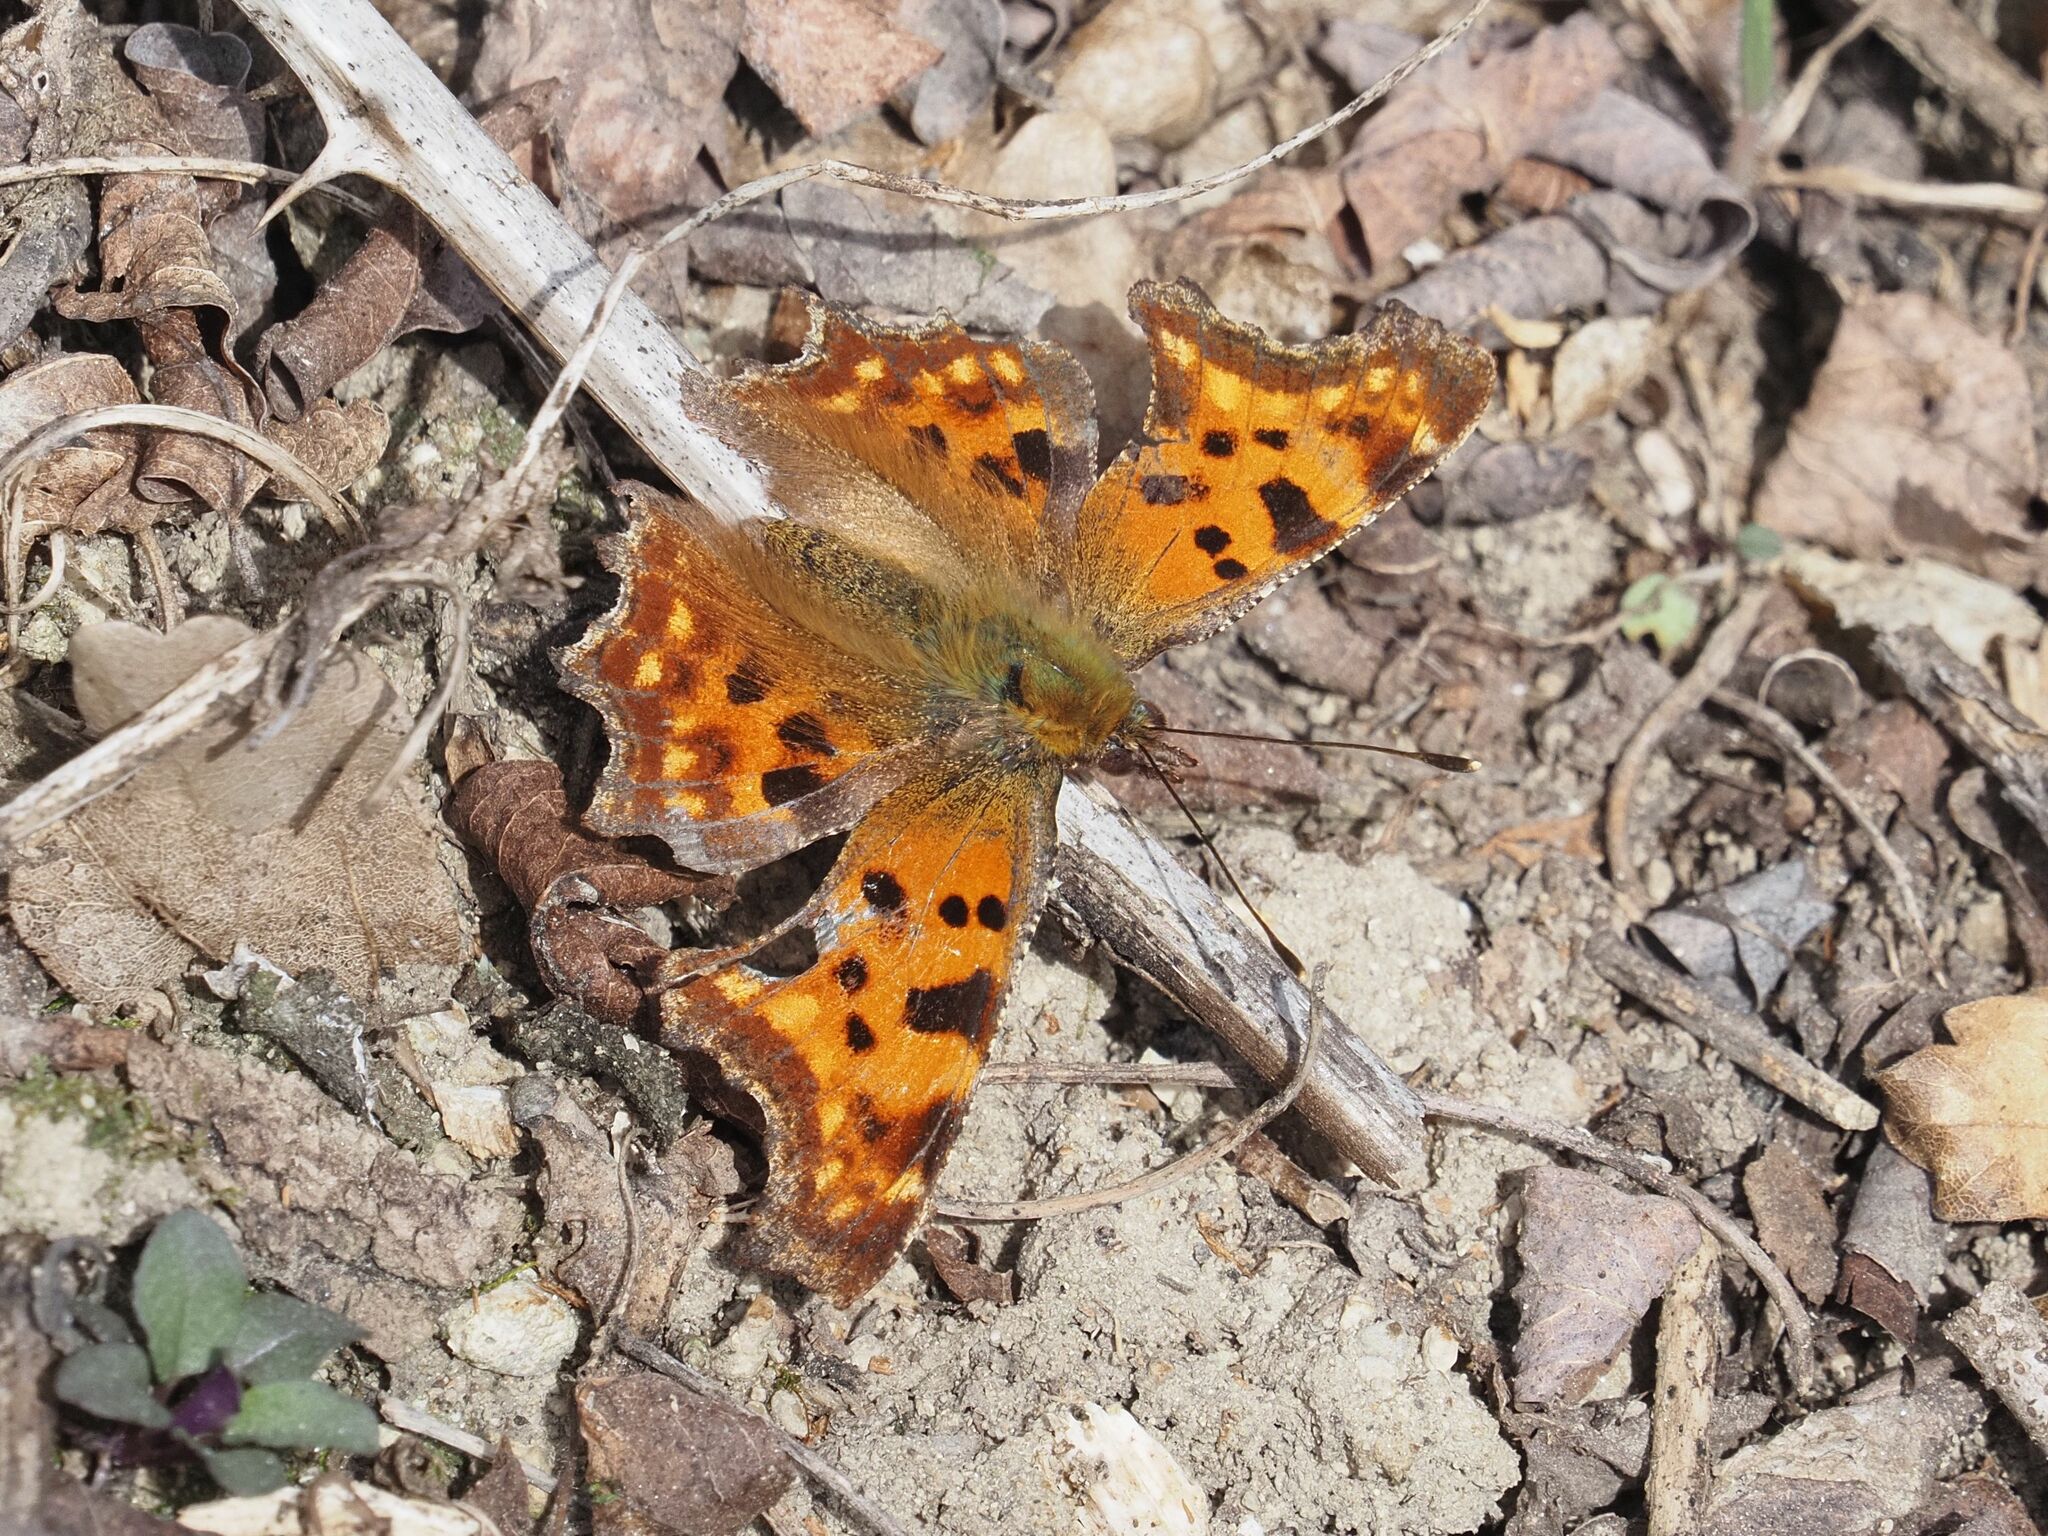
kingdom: Animalia
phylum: Arthropoda
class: Insecta
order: Lepidoptera
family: Nymphalidae
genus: Polygonia
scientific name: Polygonia c-album
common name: Comma
